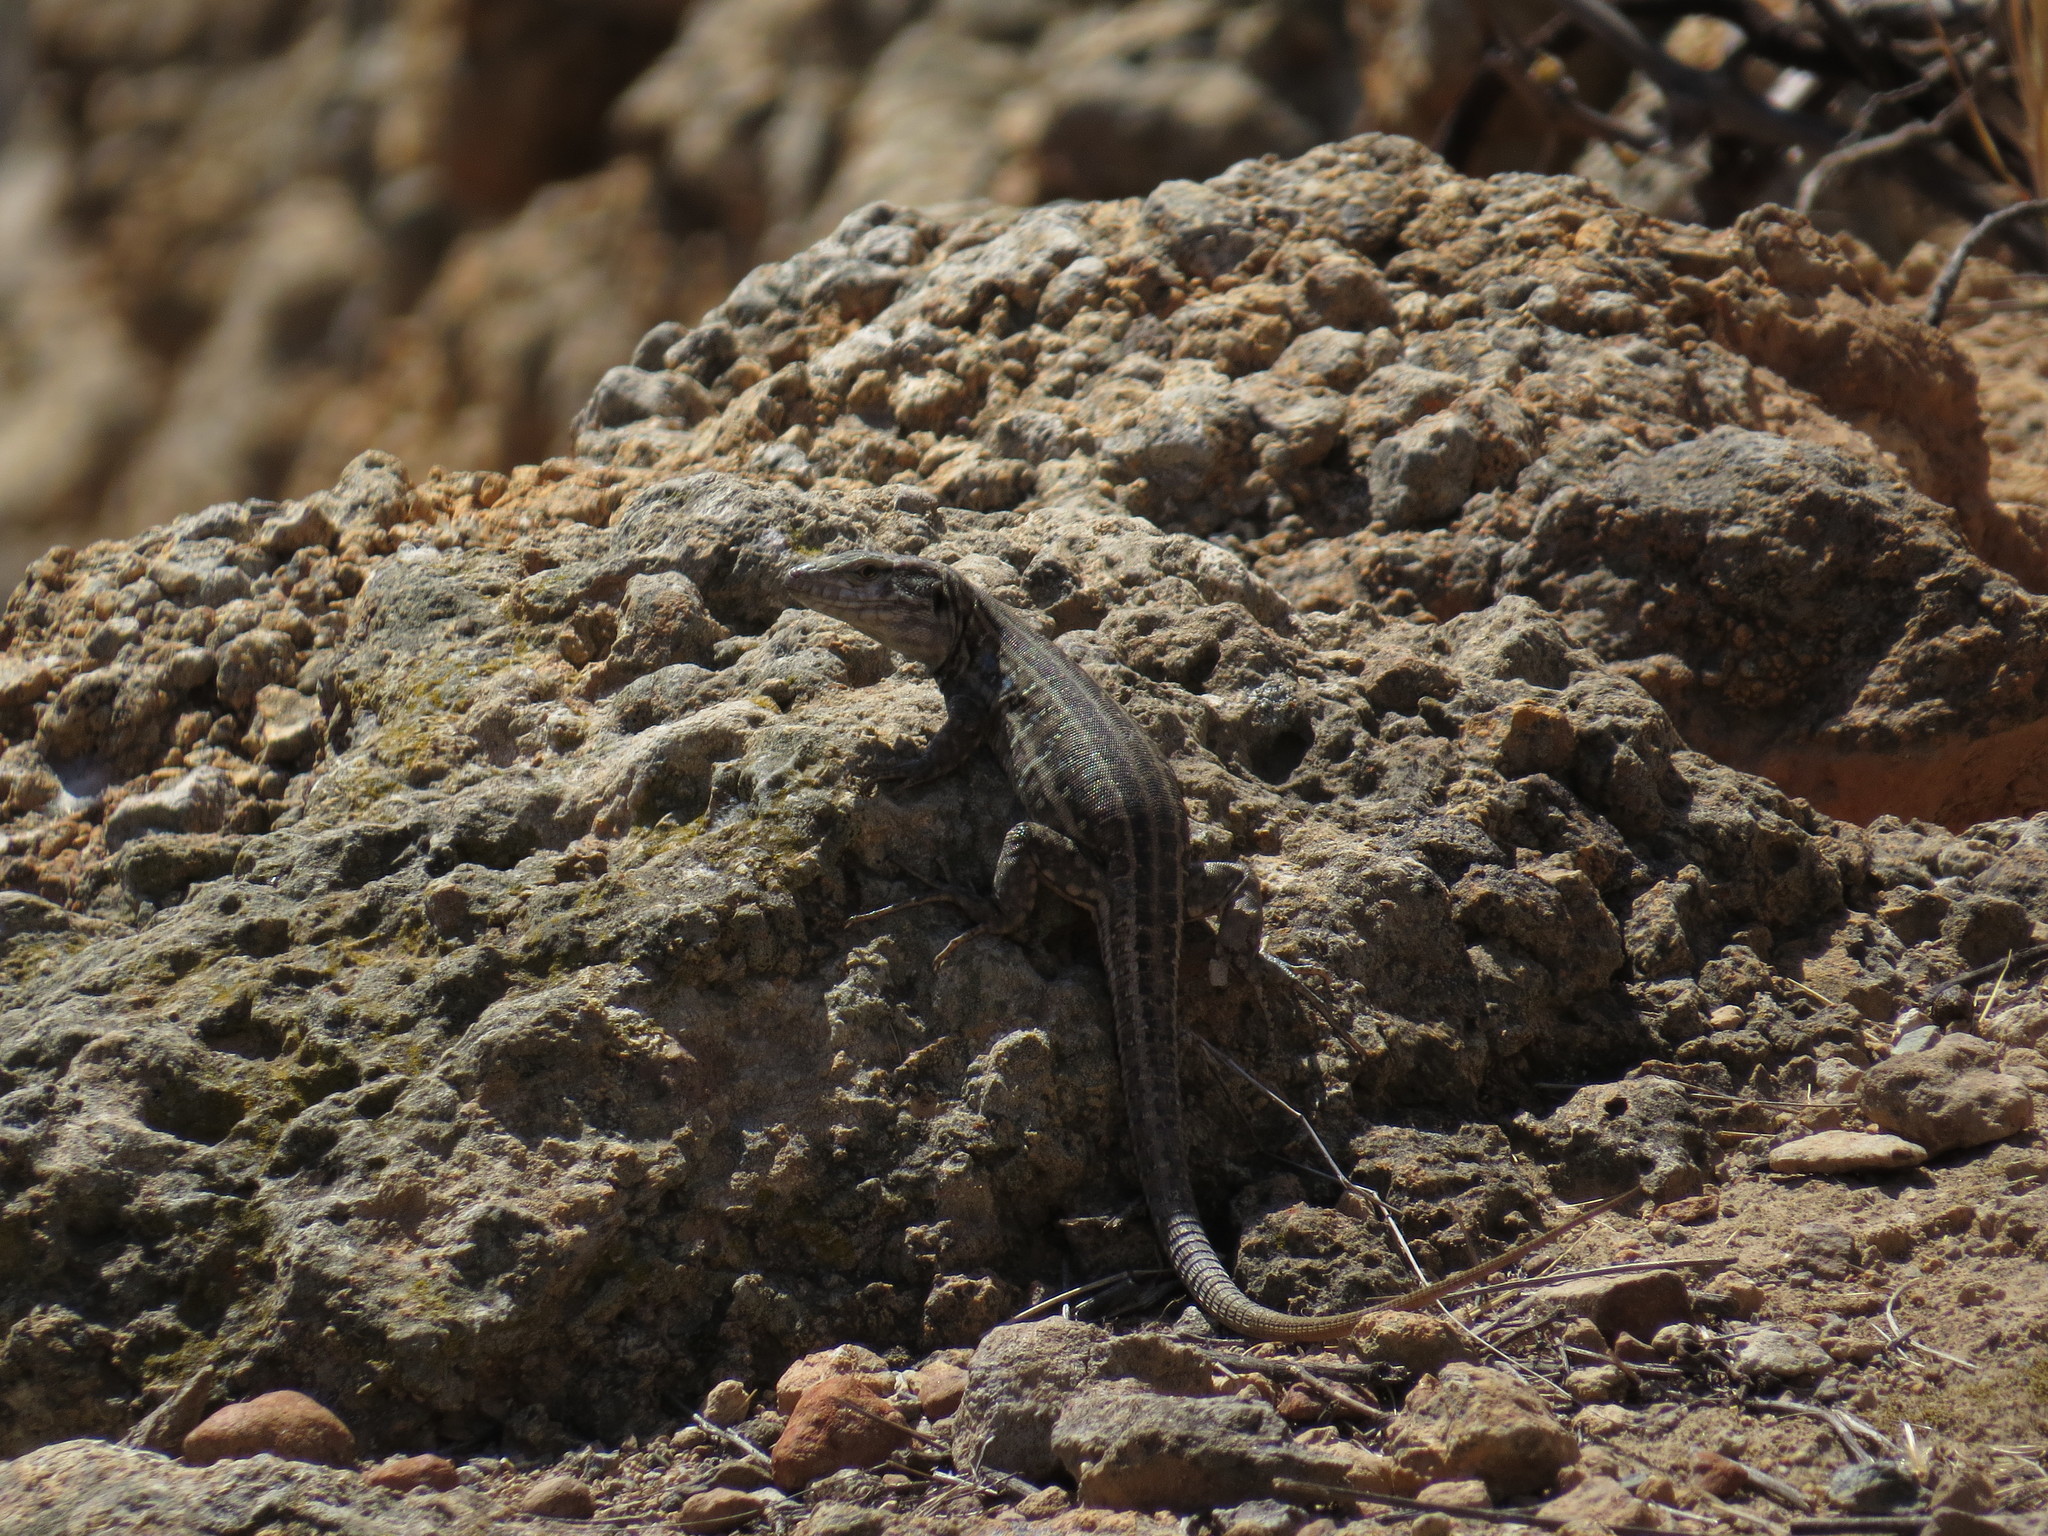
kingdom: Animalia
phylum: Chordata
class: Squamata
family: Lacertidae
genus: Gallotia
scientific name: Gallotia galloti
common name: Gallot's lizard
